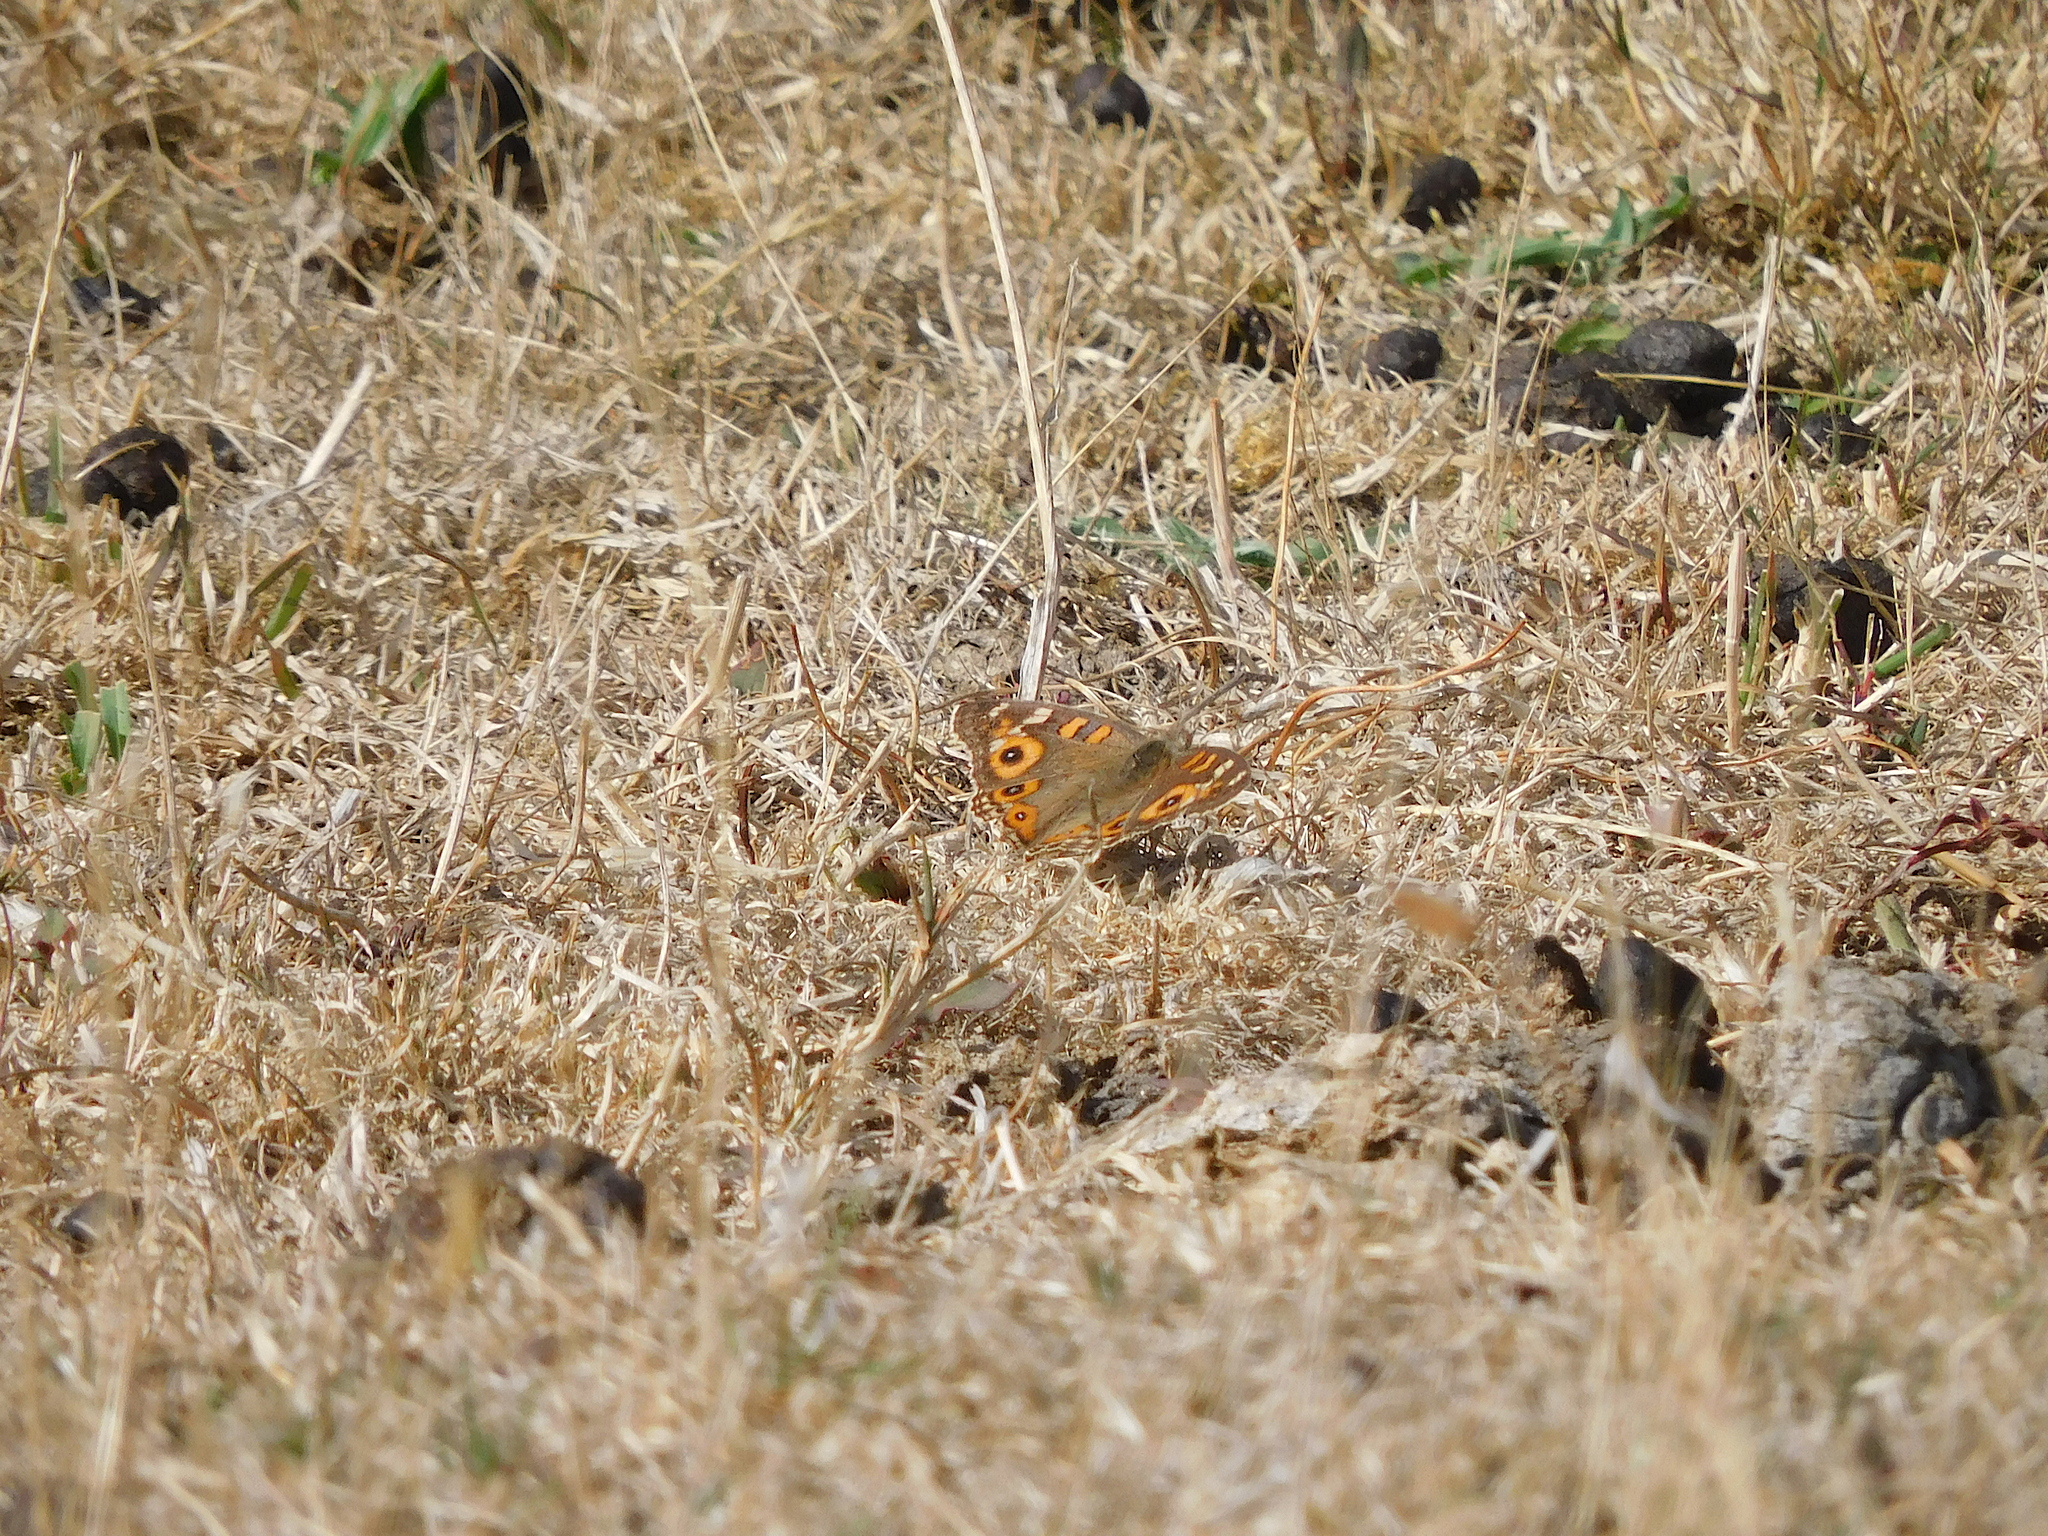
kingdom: Animalia
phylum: Arthropoda
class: Insecta
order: Lepidoptera
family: Nymphalidae
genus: Junonia
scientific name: Junonia villida
